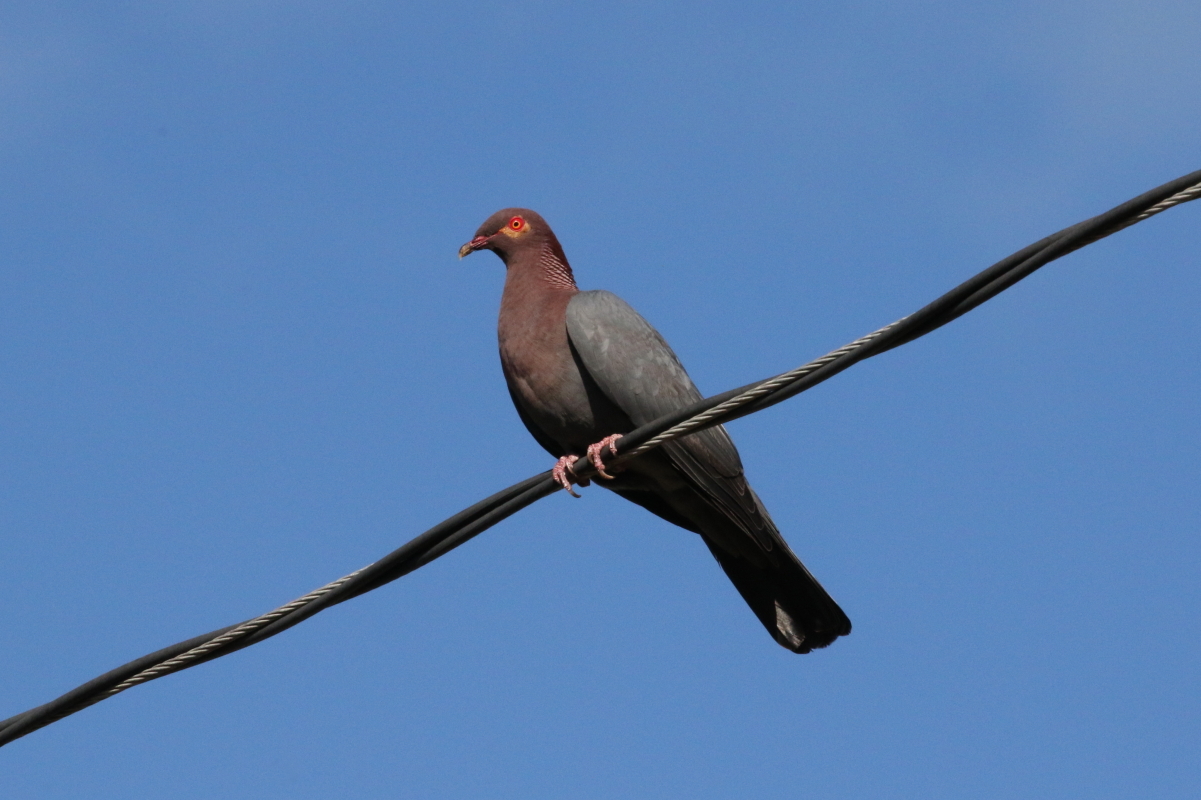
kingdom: Animalia
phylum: Chordata
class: Aves
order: Columbiformes
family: Columbidae
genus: Patagioenas
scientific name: Patagioenas squamosa
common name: Scaly-naped pigeon
